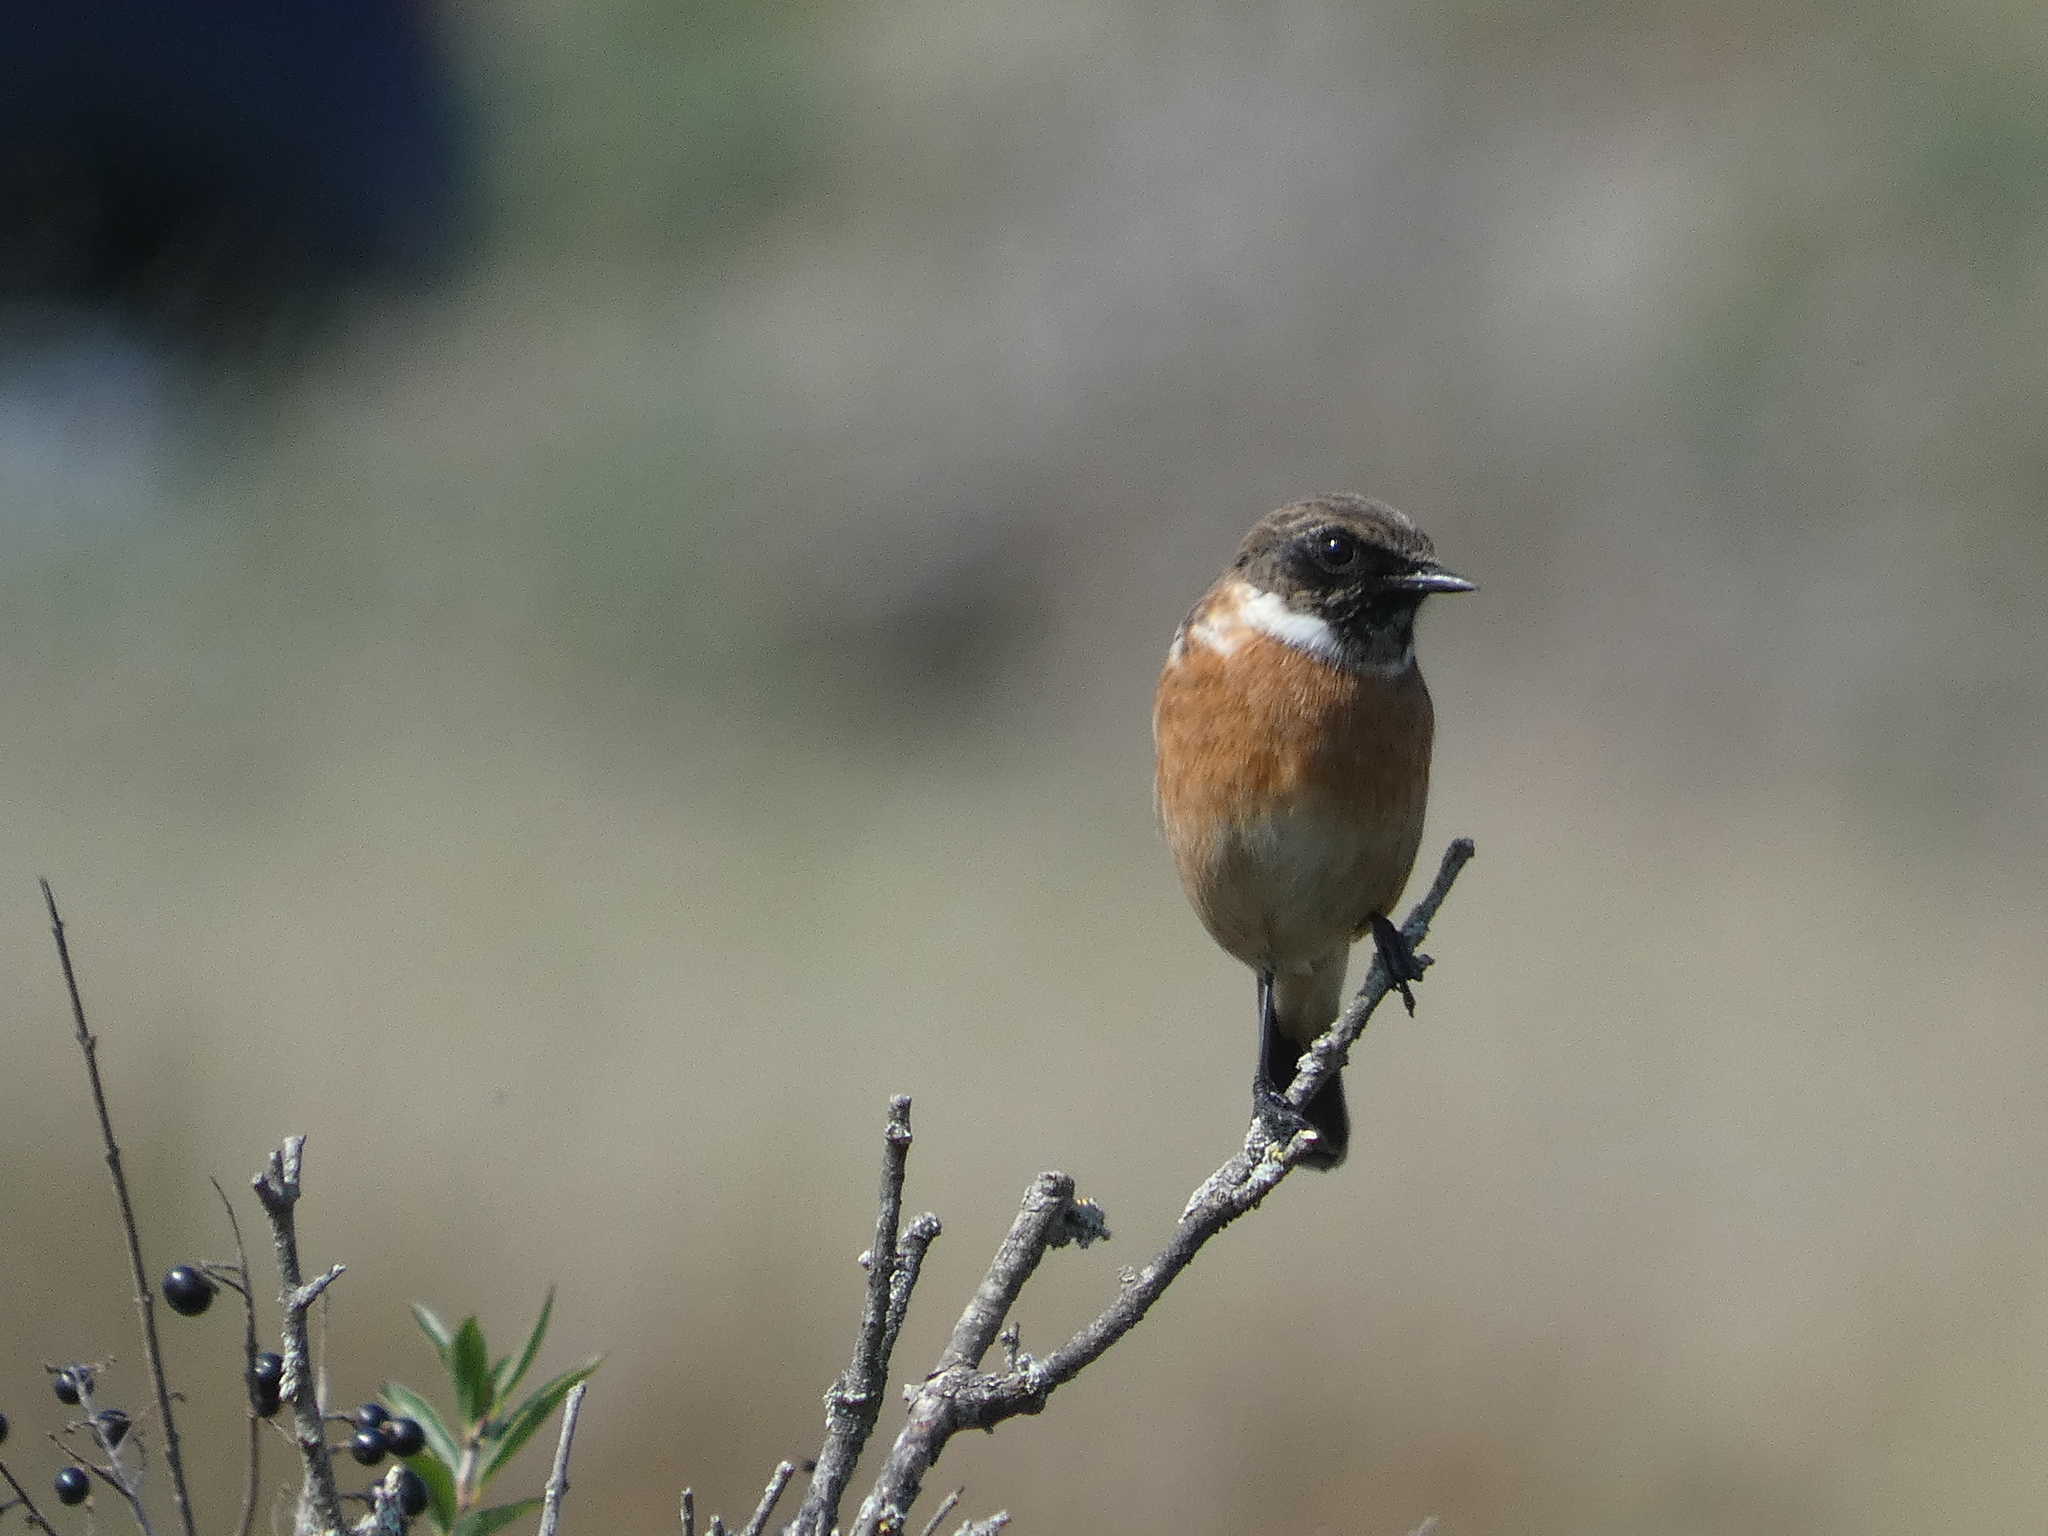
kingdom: Animalia
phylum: Chordata
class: Aves
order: Passeriformes
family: Muscicapidae
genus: Saxicola
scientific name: Saxicola rubicola
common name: European stonechat
